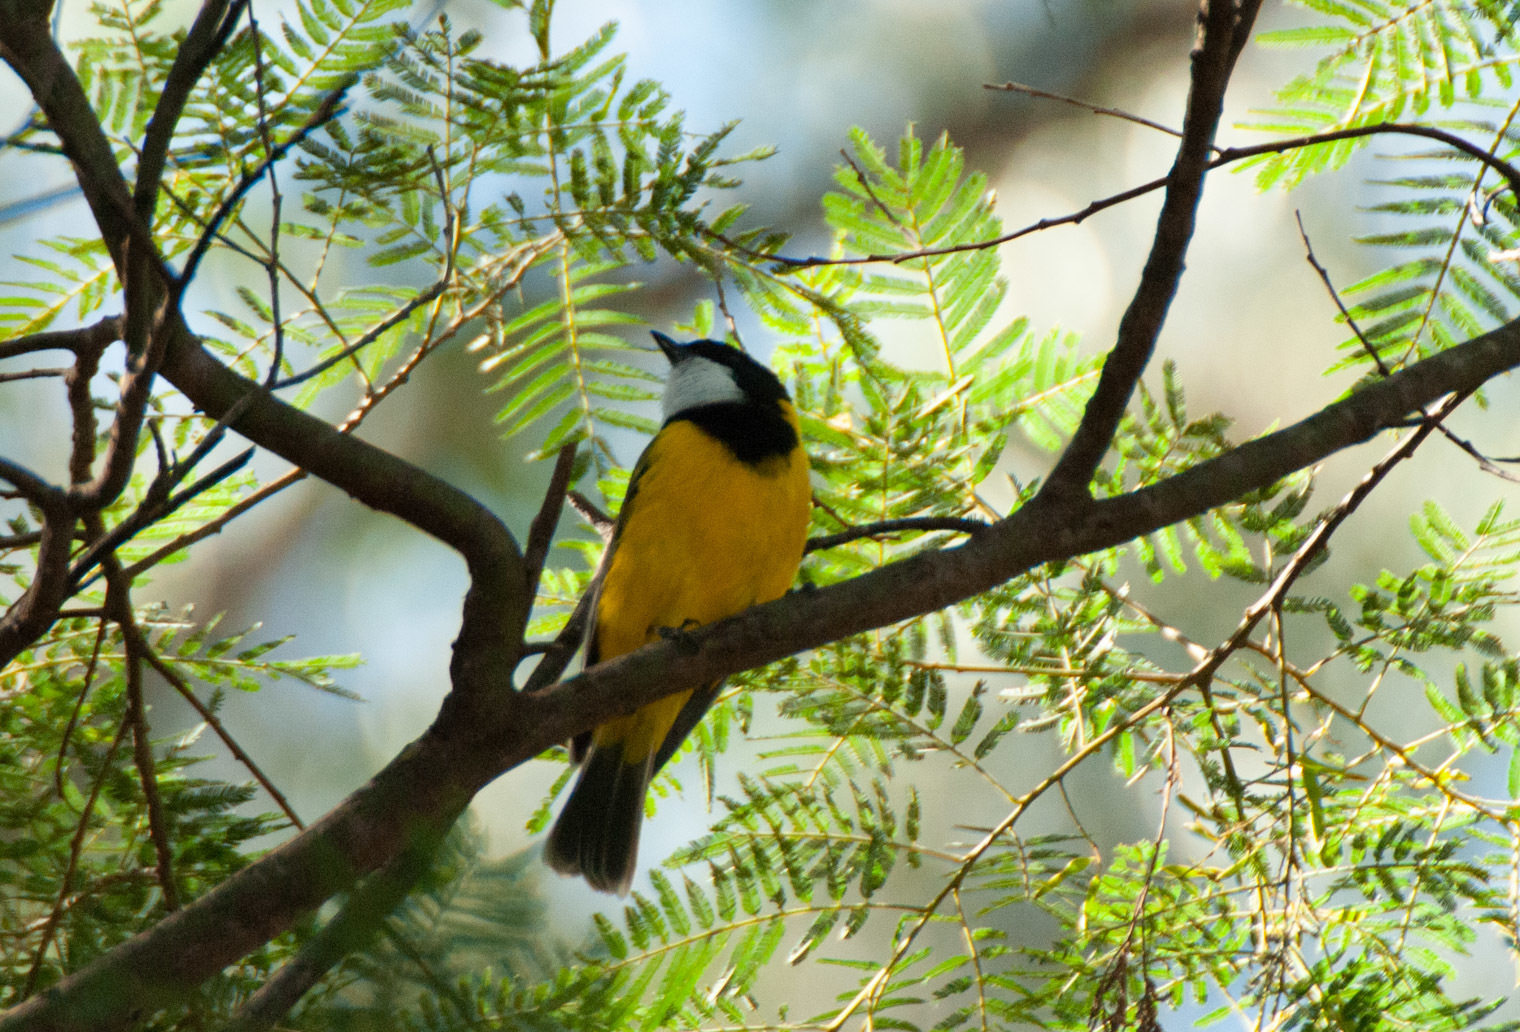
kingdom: Animalia
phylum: Chordata
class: Aves
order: Passeriformes
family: Pachycephalidae
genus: Pachycephala
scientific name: Pachycephala pectoralis
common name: Australian golden whistler
